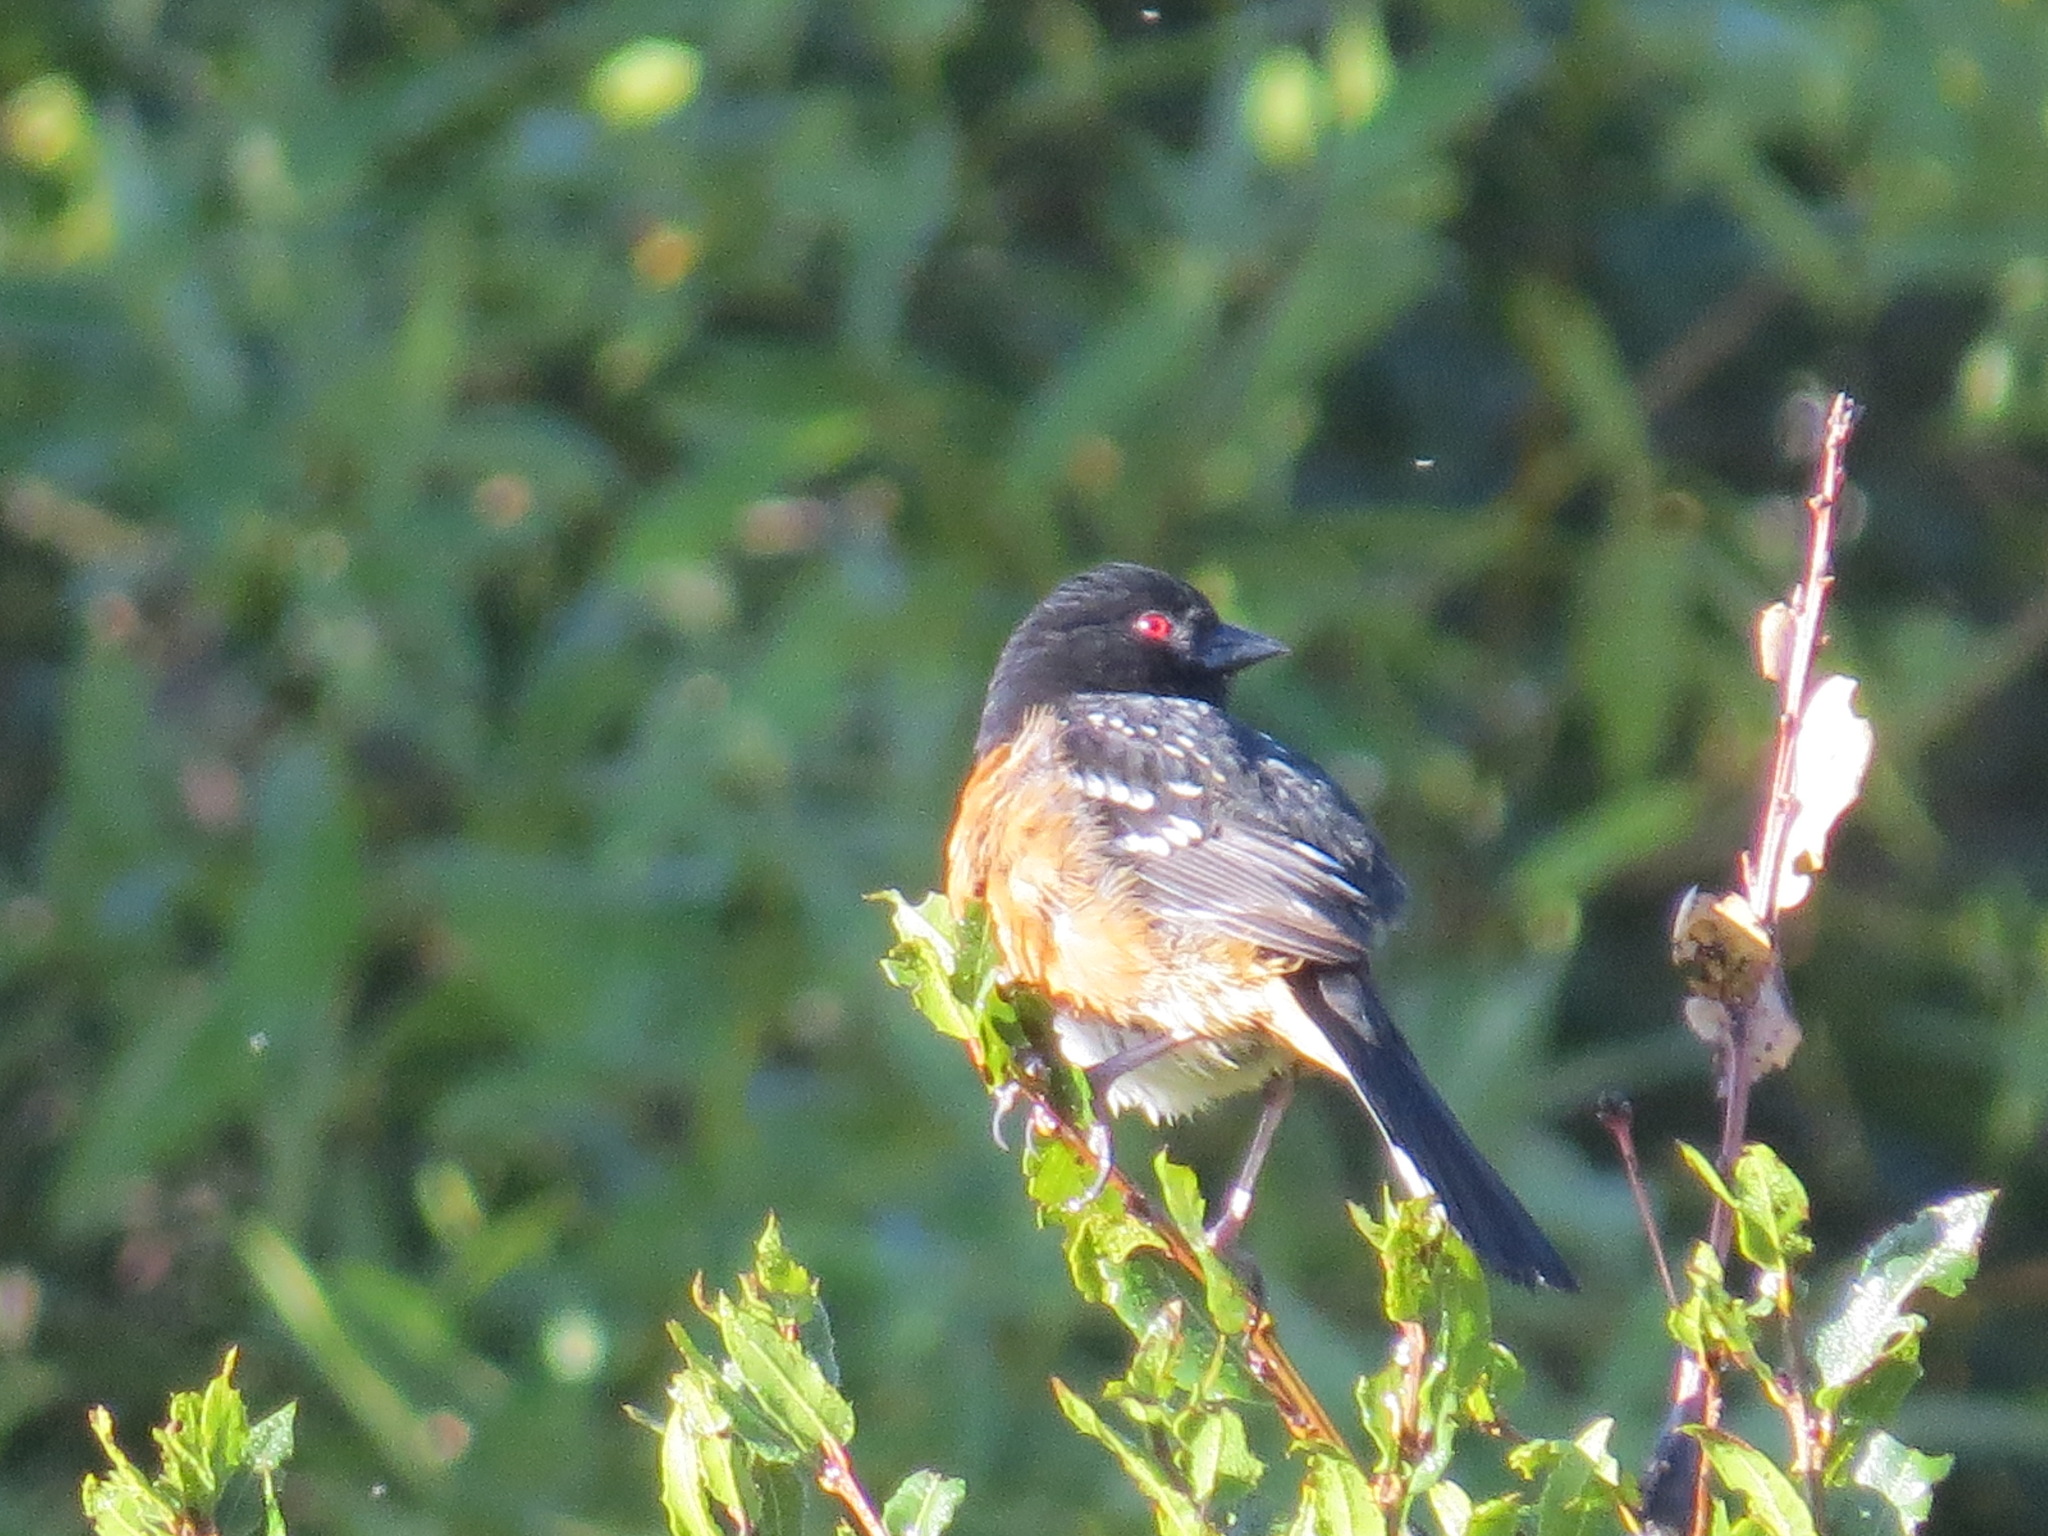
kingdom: Animalia
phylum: Chordata
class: Aves
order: Passeriformes
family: Passerellidae
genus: Pipilo
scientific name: Pipilo maculatus
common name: Spotted towhee
